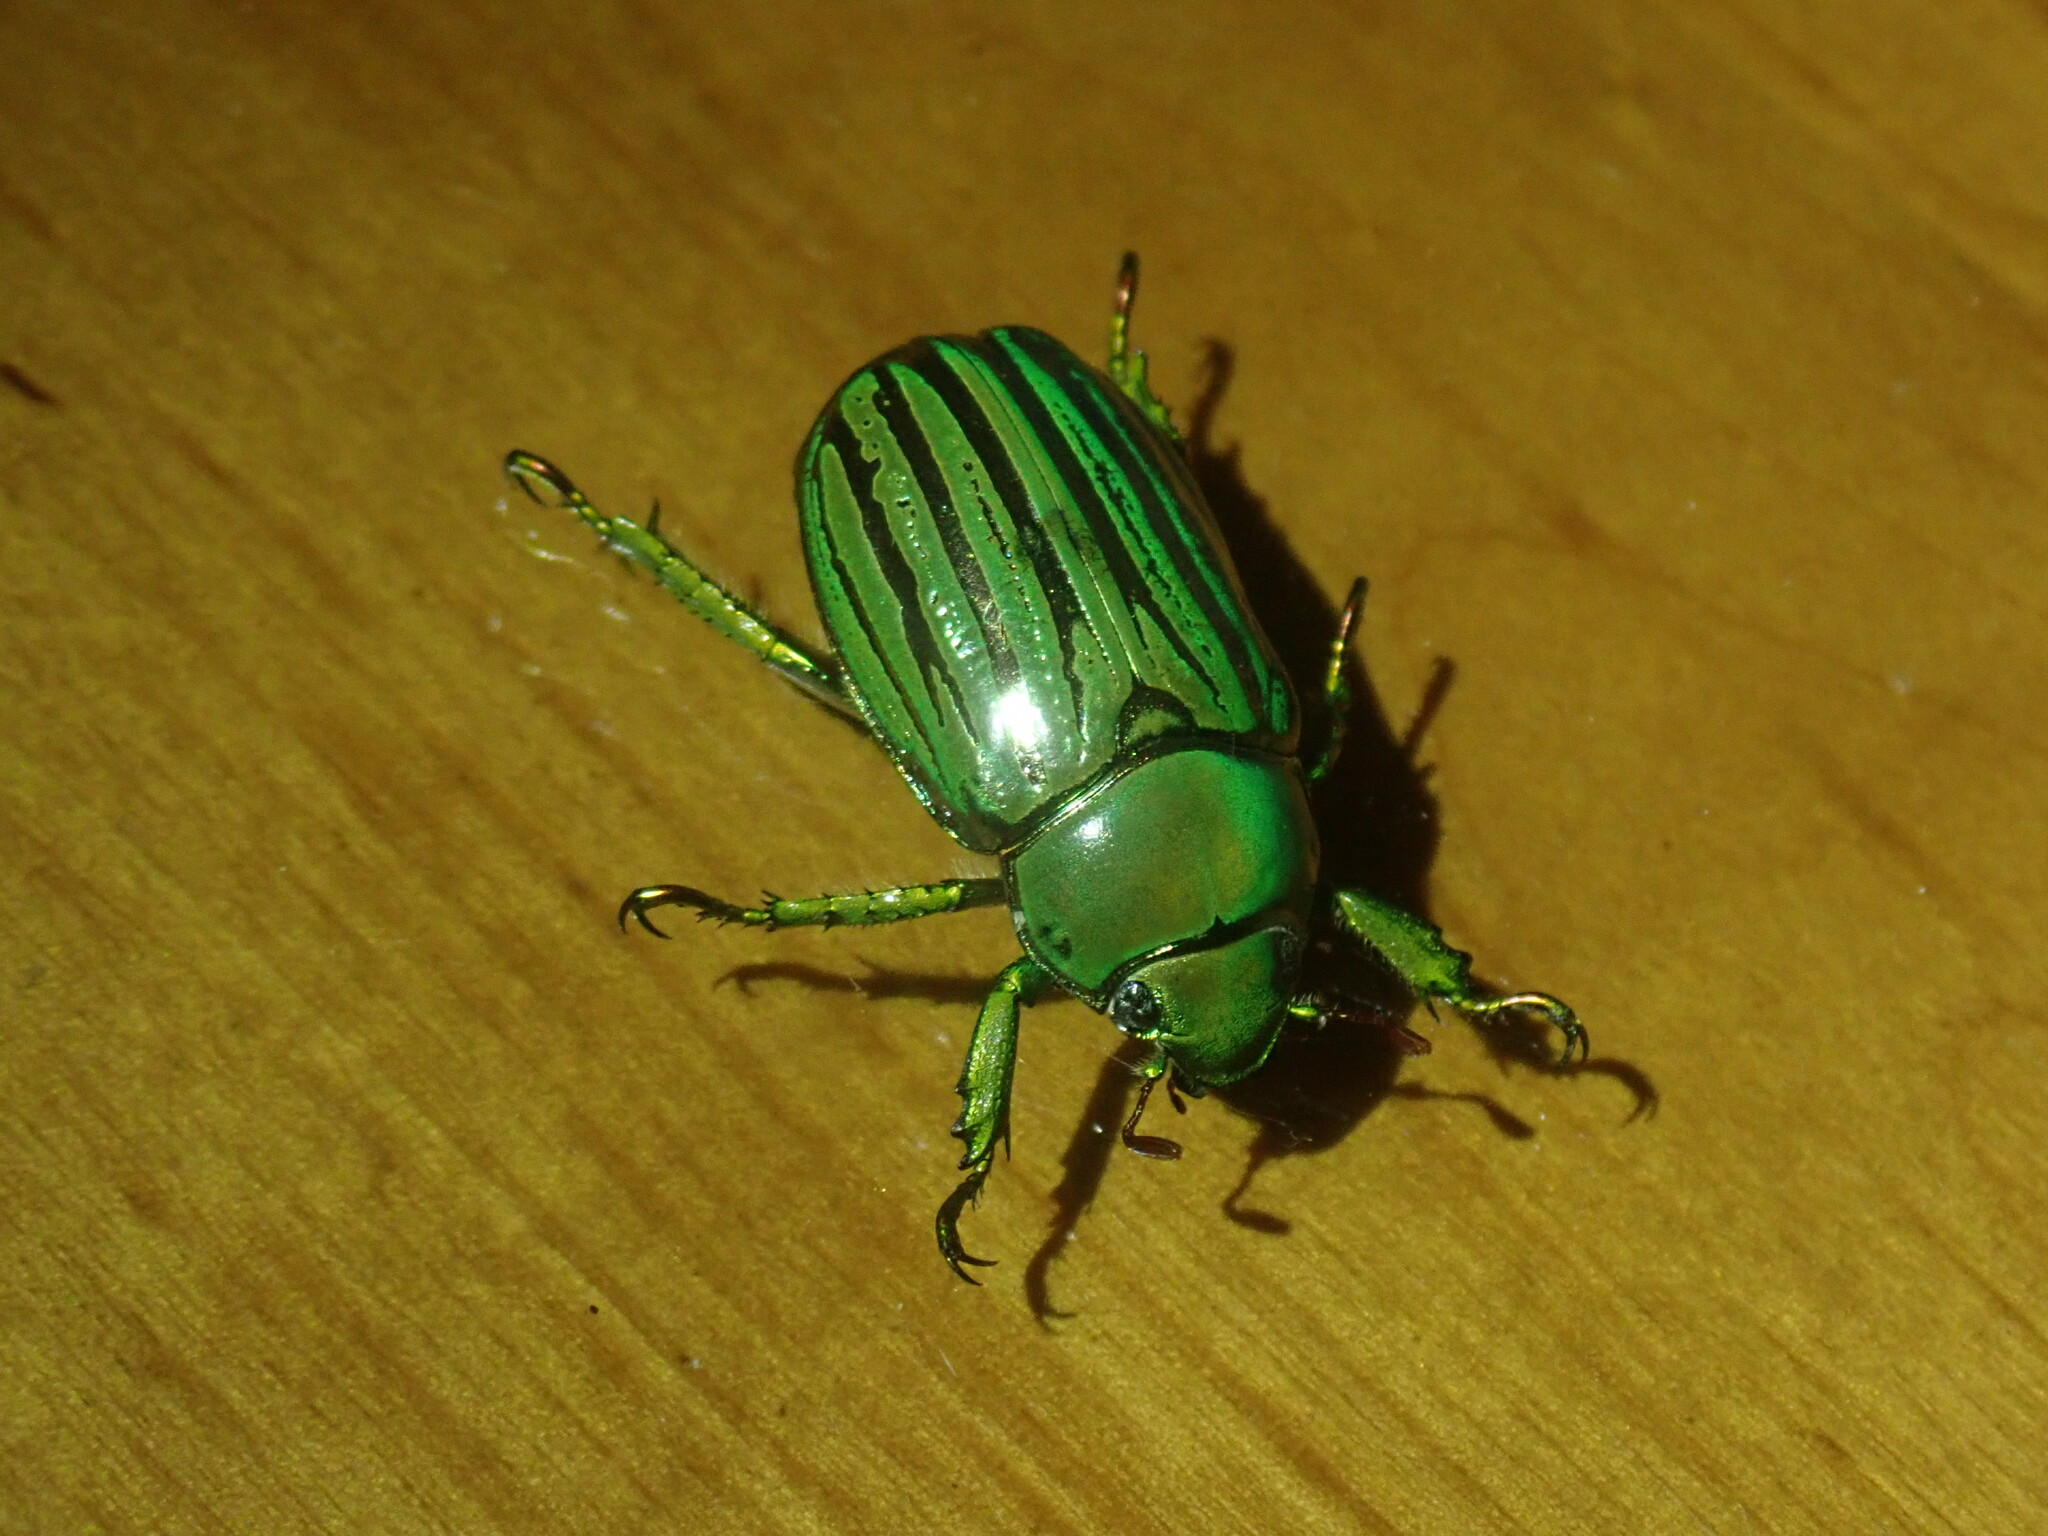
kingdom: Animalia
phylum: Arthropoda
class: Insecta
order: Coleoptera
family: Scarabaeidae
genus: Chrysina
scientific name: Chrysina gloriosa
